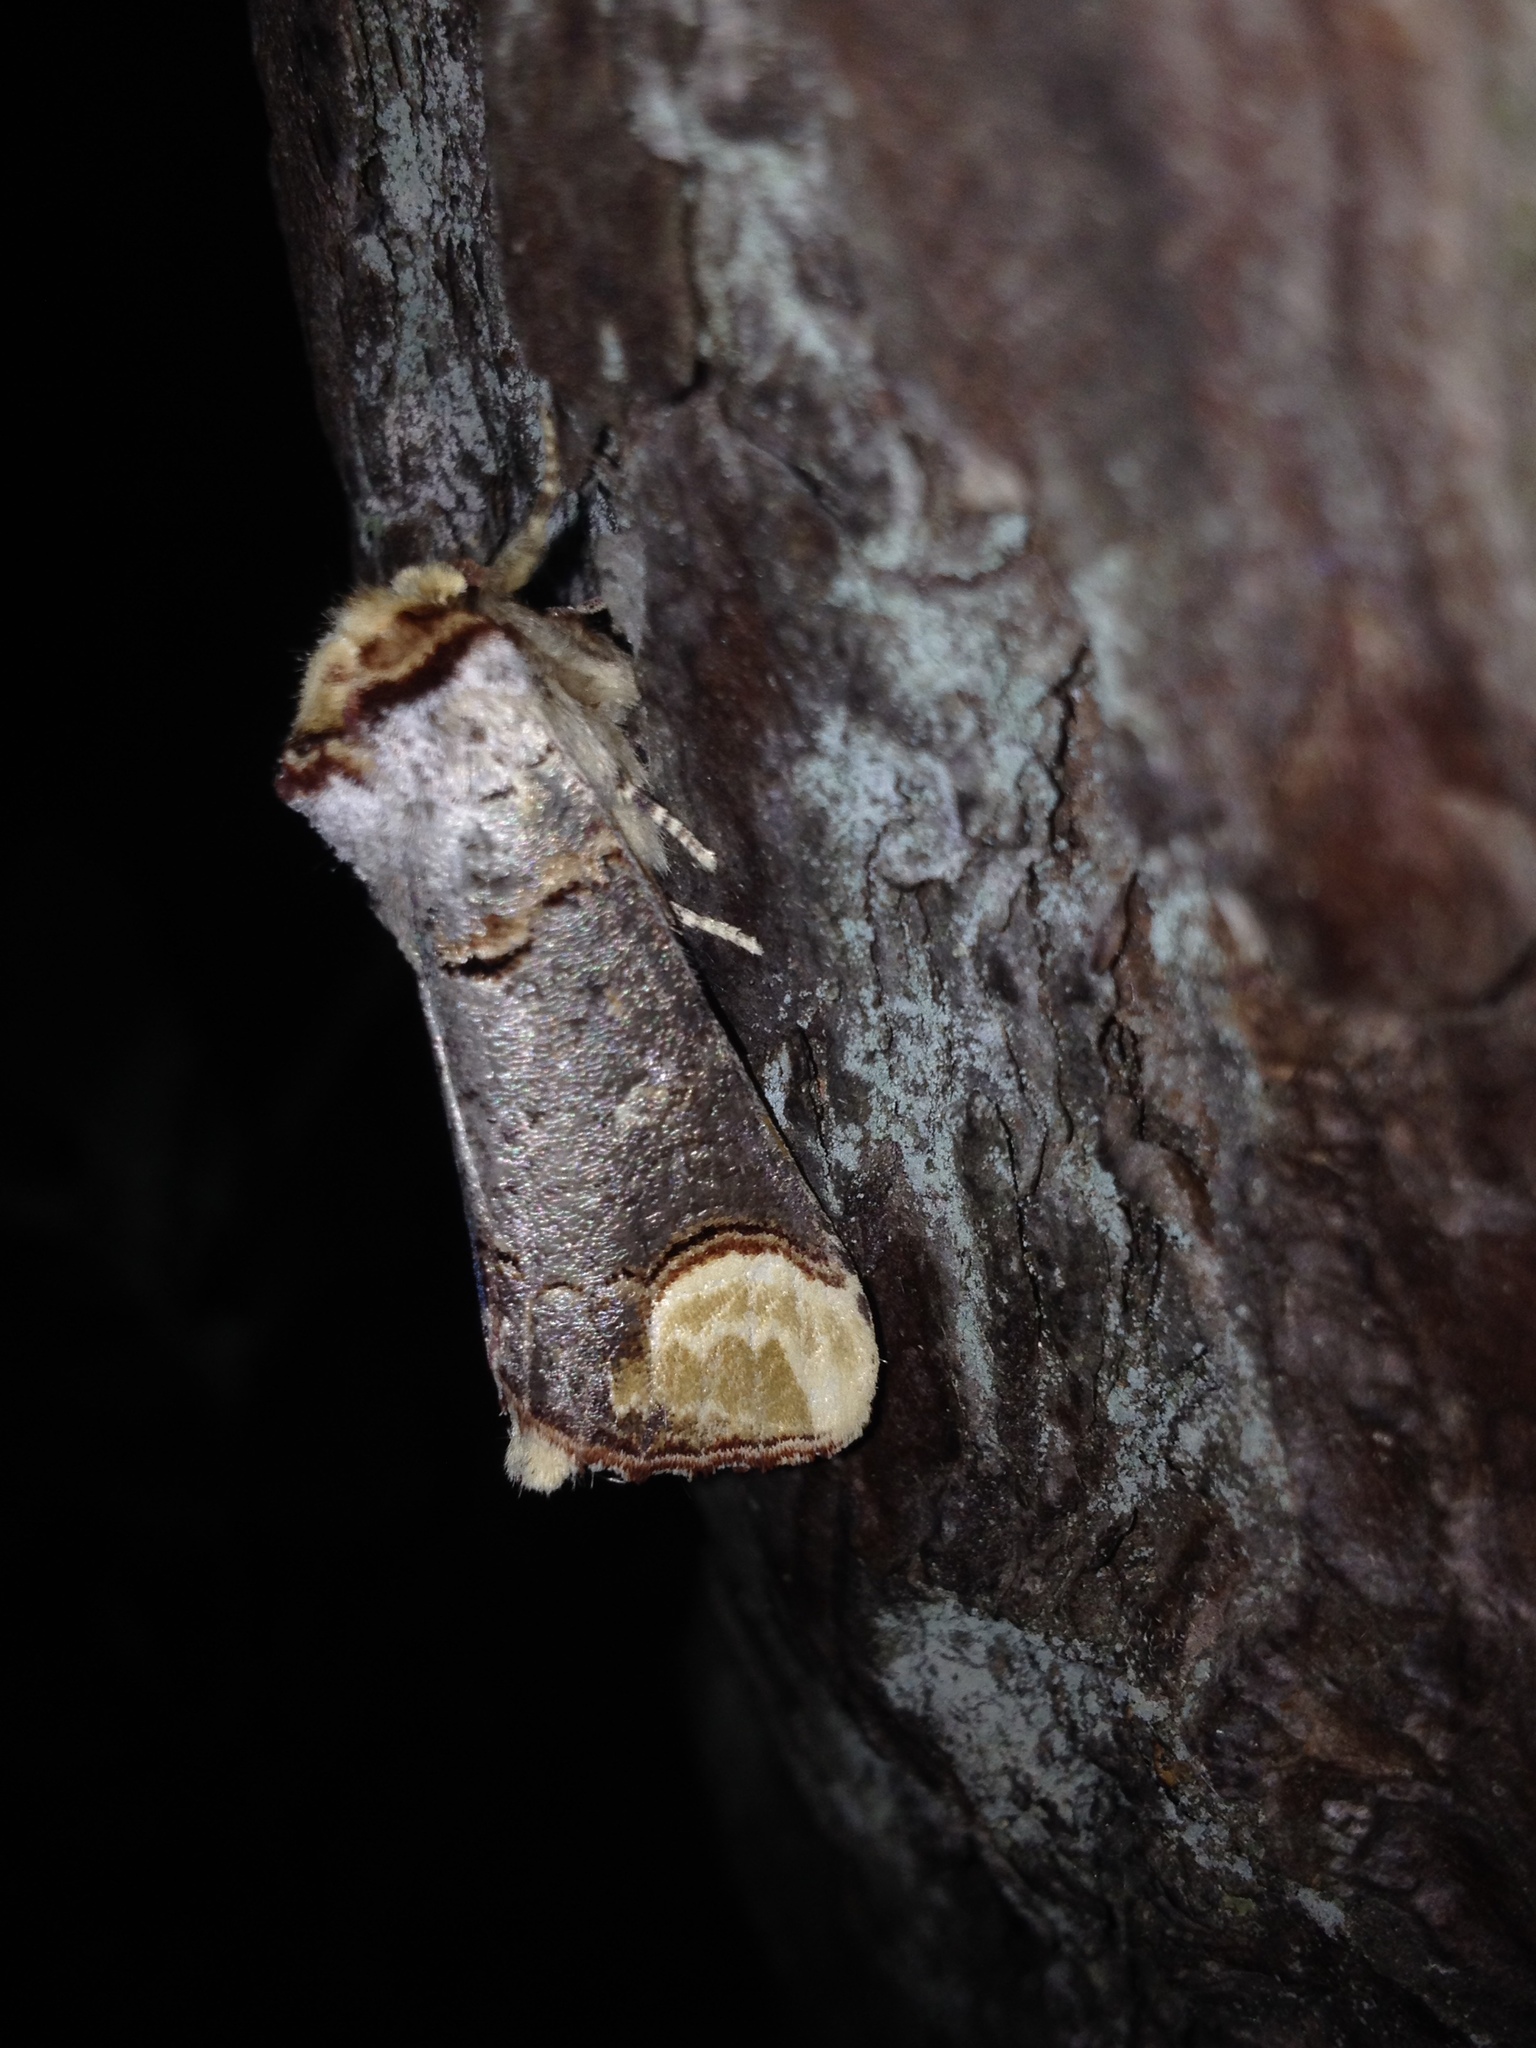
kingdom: Animalia
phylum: Arthropoda
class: Insecta
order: Lepidoptera
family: Notodontidae
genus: Phalera
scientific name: Phalera bucephala
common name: Buff-tip
